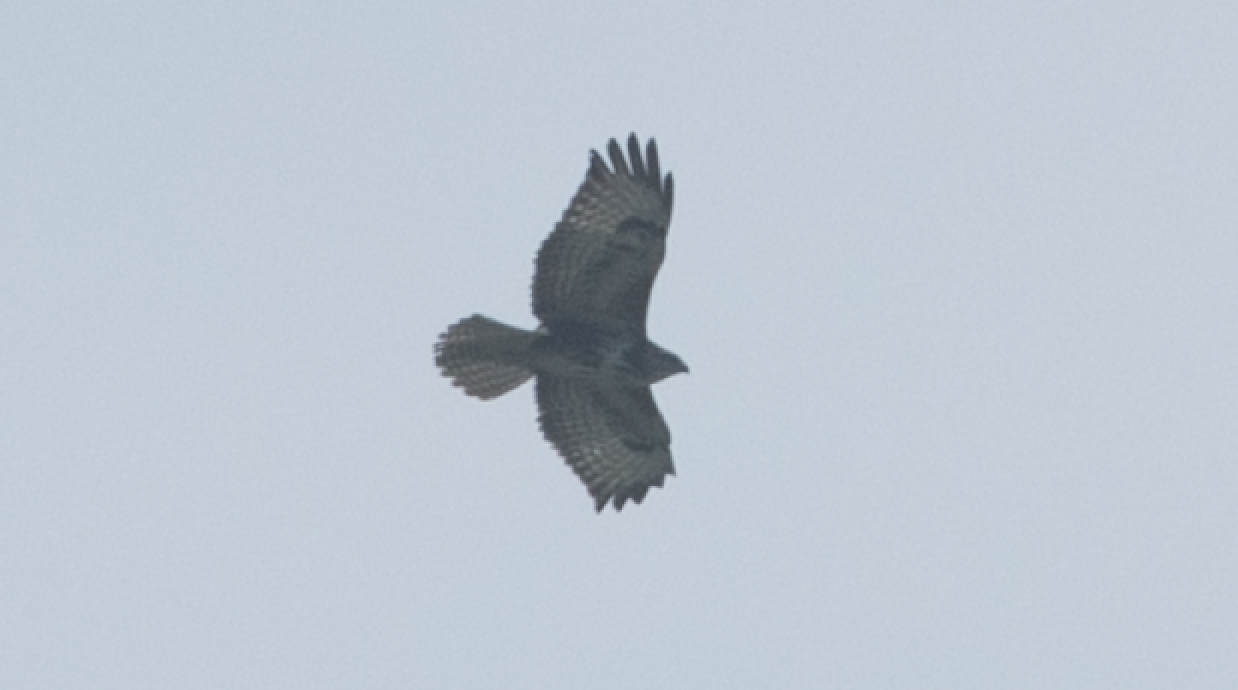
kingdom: Animalia
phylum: Chordata
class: Aves
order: Accipitriformes
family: Accipitridae
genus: Buteo
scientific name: Buteo buteo
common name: Common buzzard
